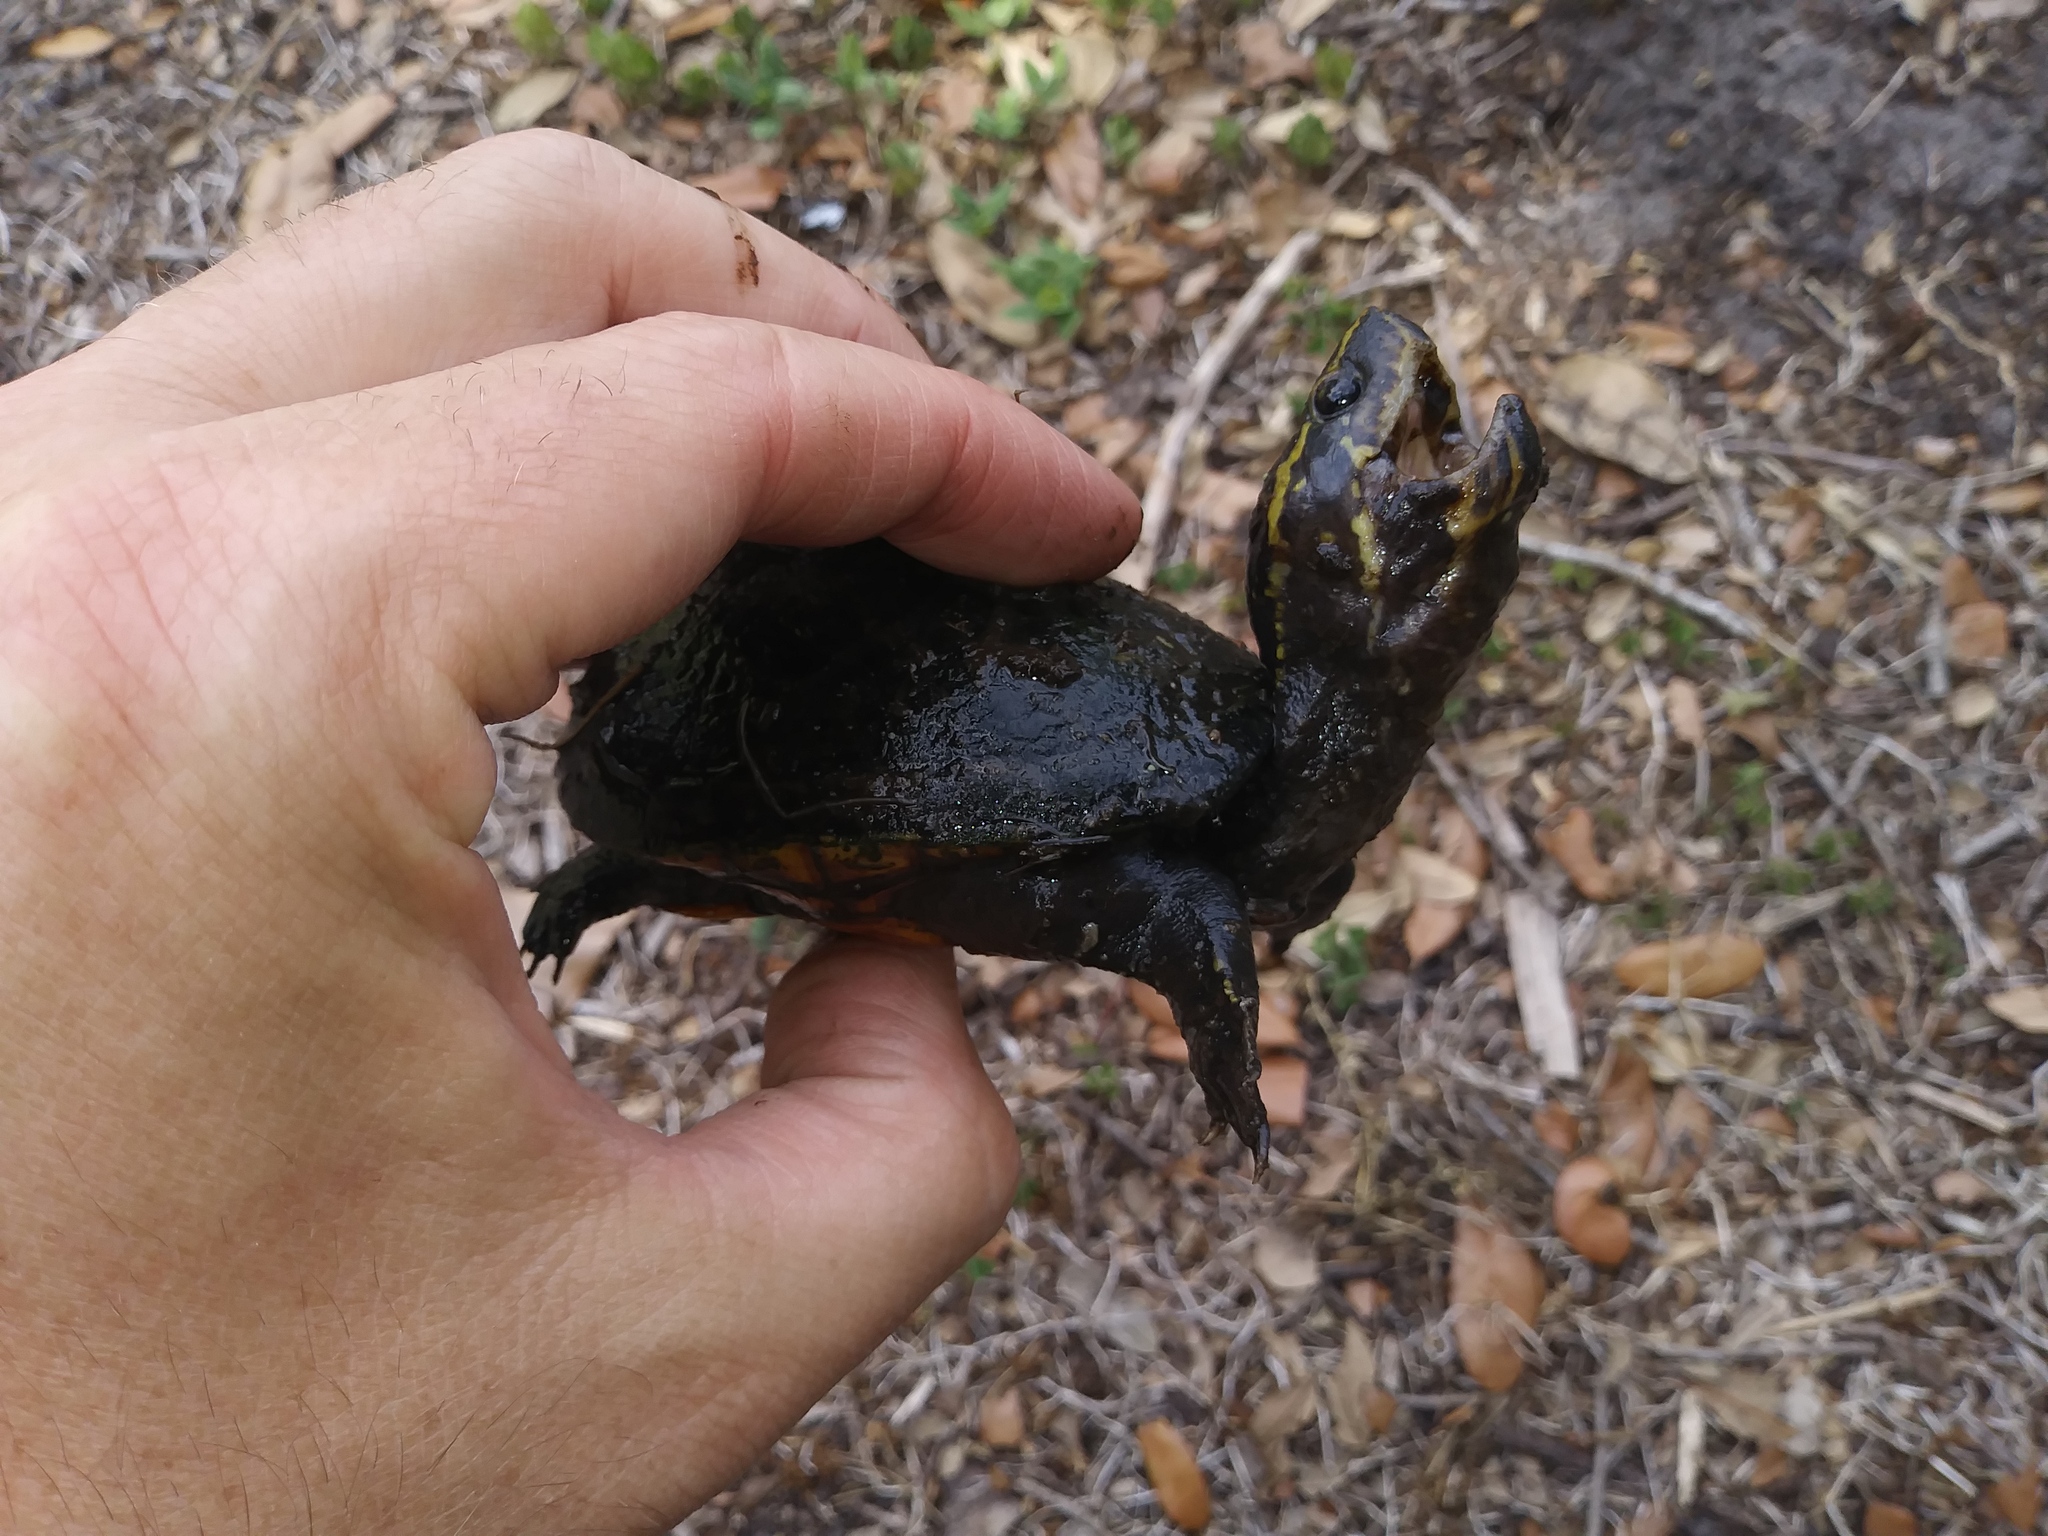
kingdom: Animalia
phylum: Chordata
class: Testudines
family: Kinosternidae
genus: Kinosternon
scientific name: Kinosternon baurii
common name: Striped mud turtle
